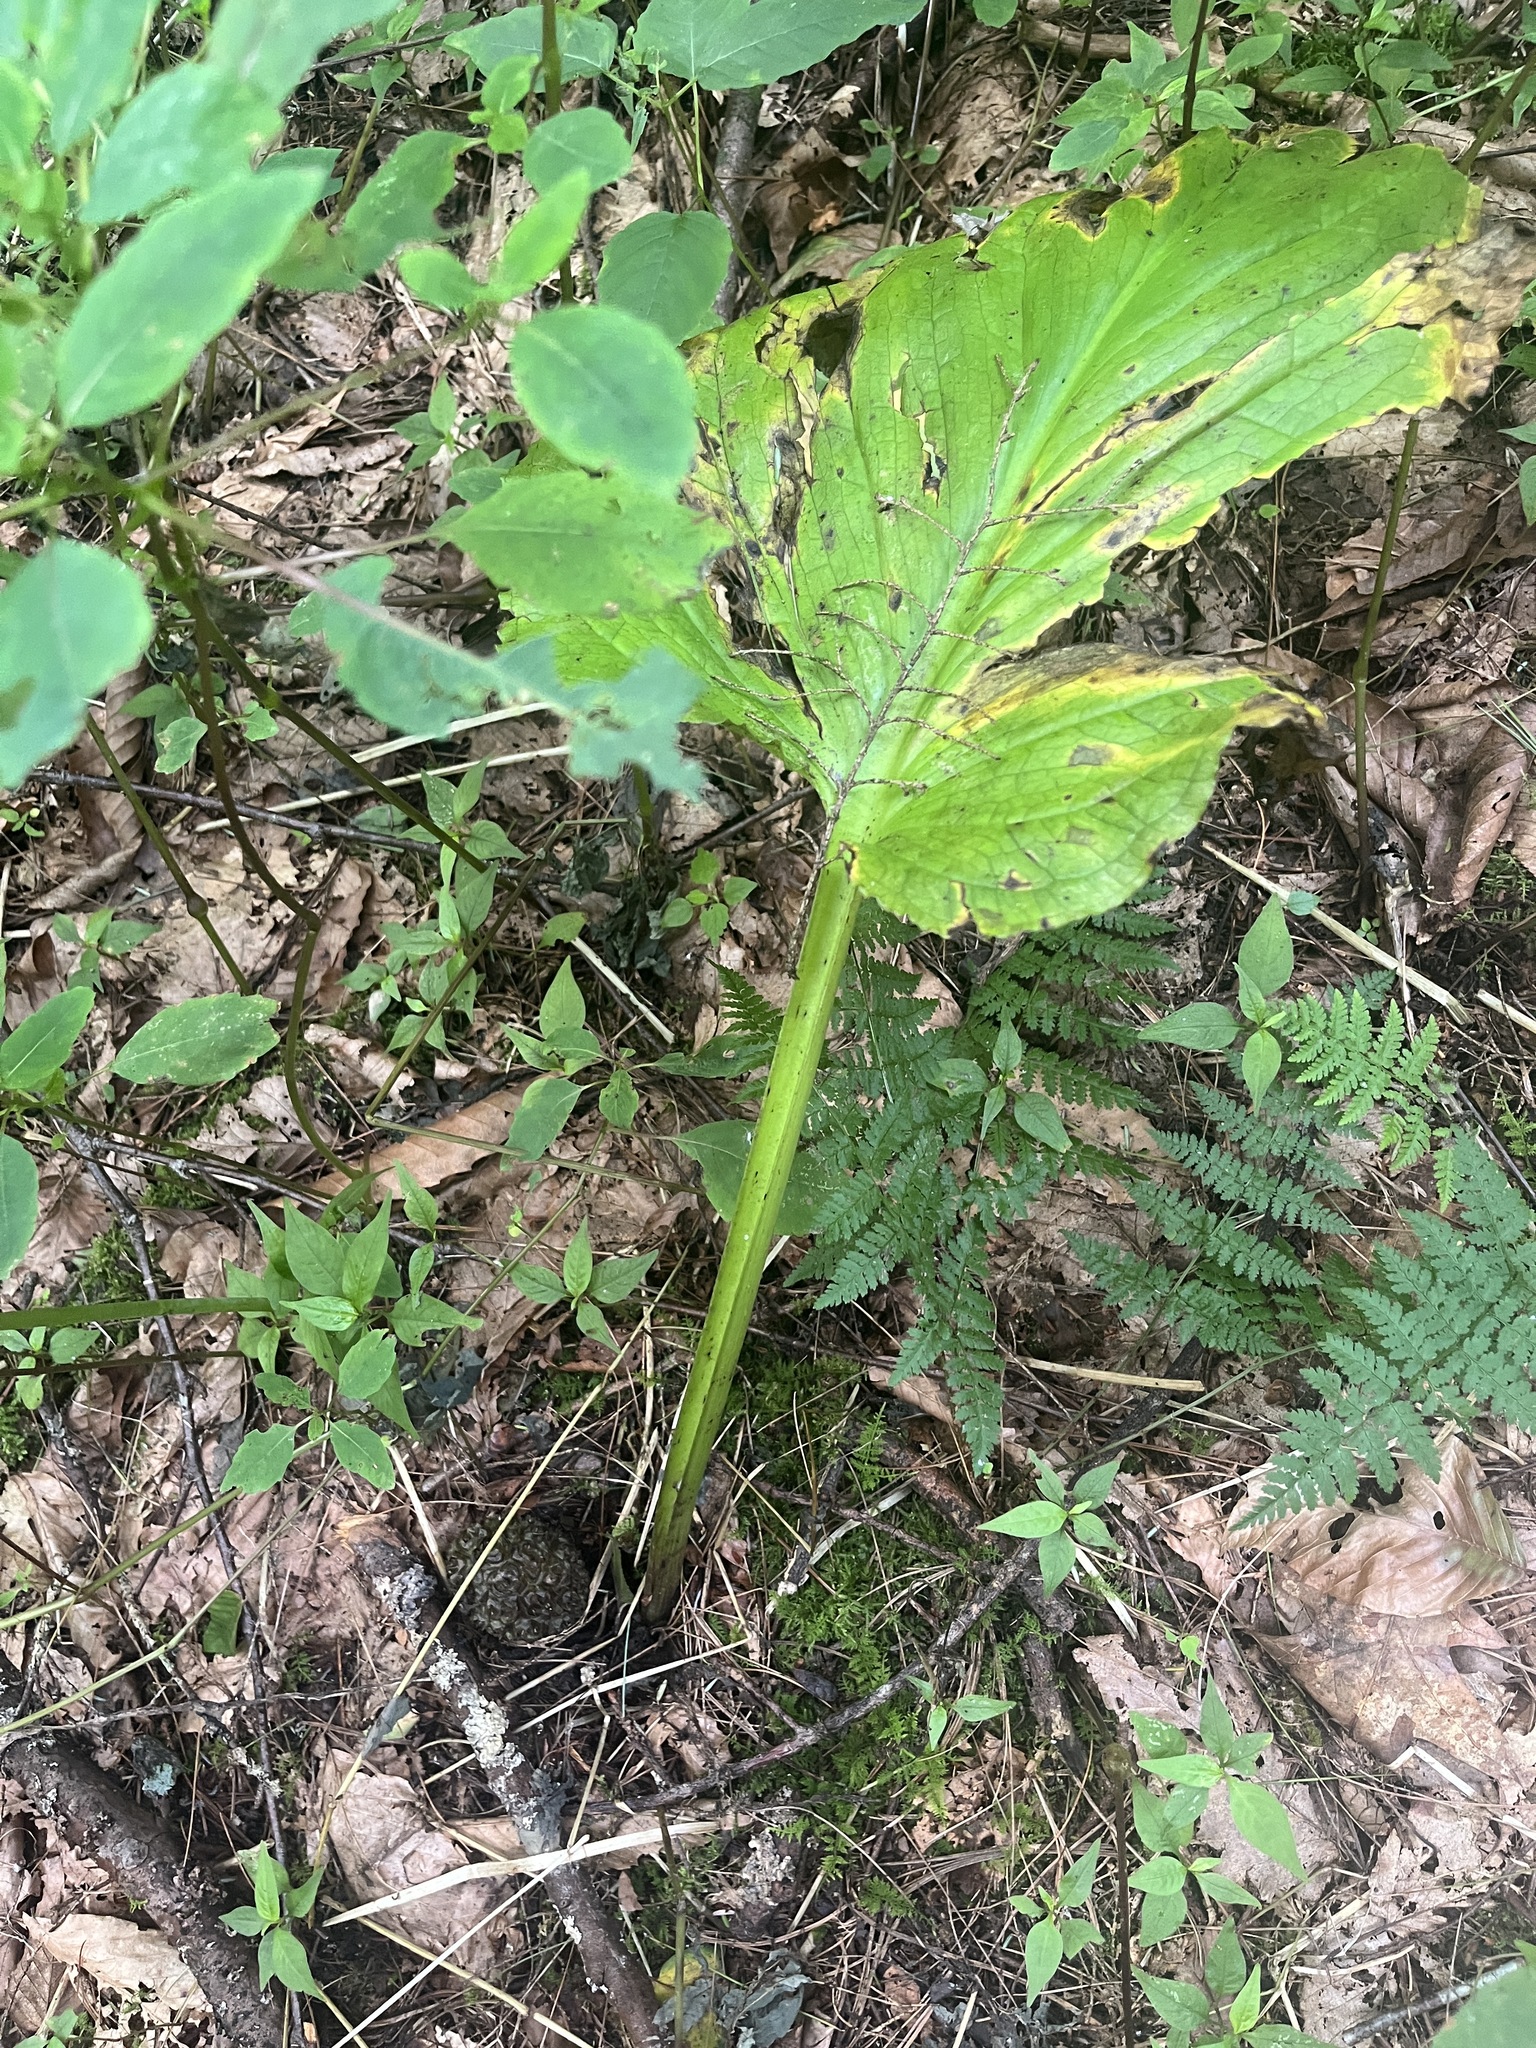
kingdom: Plantae
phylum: Tracheophyta
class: Liliopsida
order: Alismatales
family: Araceae
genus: Symplocarpus
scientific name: Symplocarpus foetidus
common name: Eastern skunk cabbage
